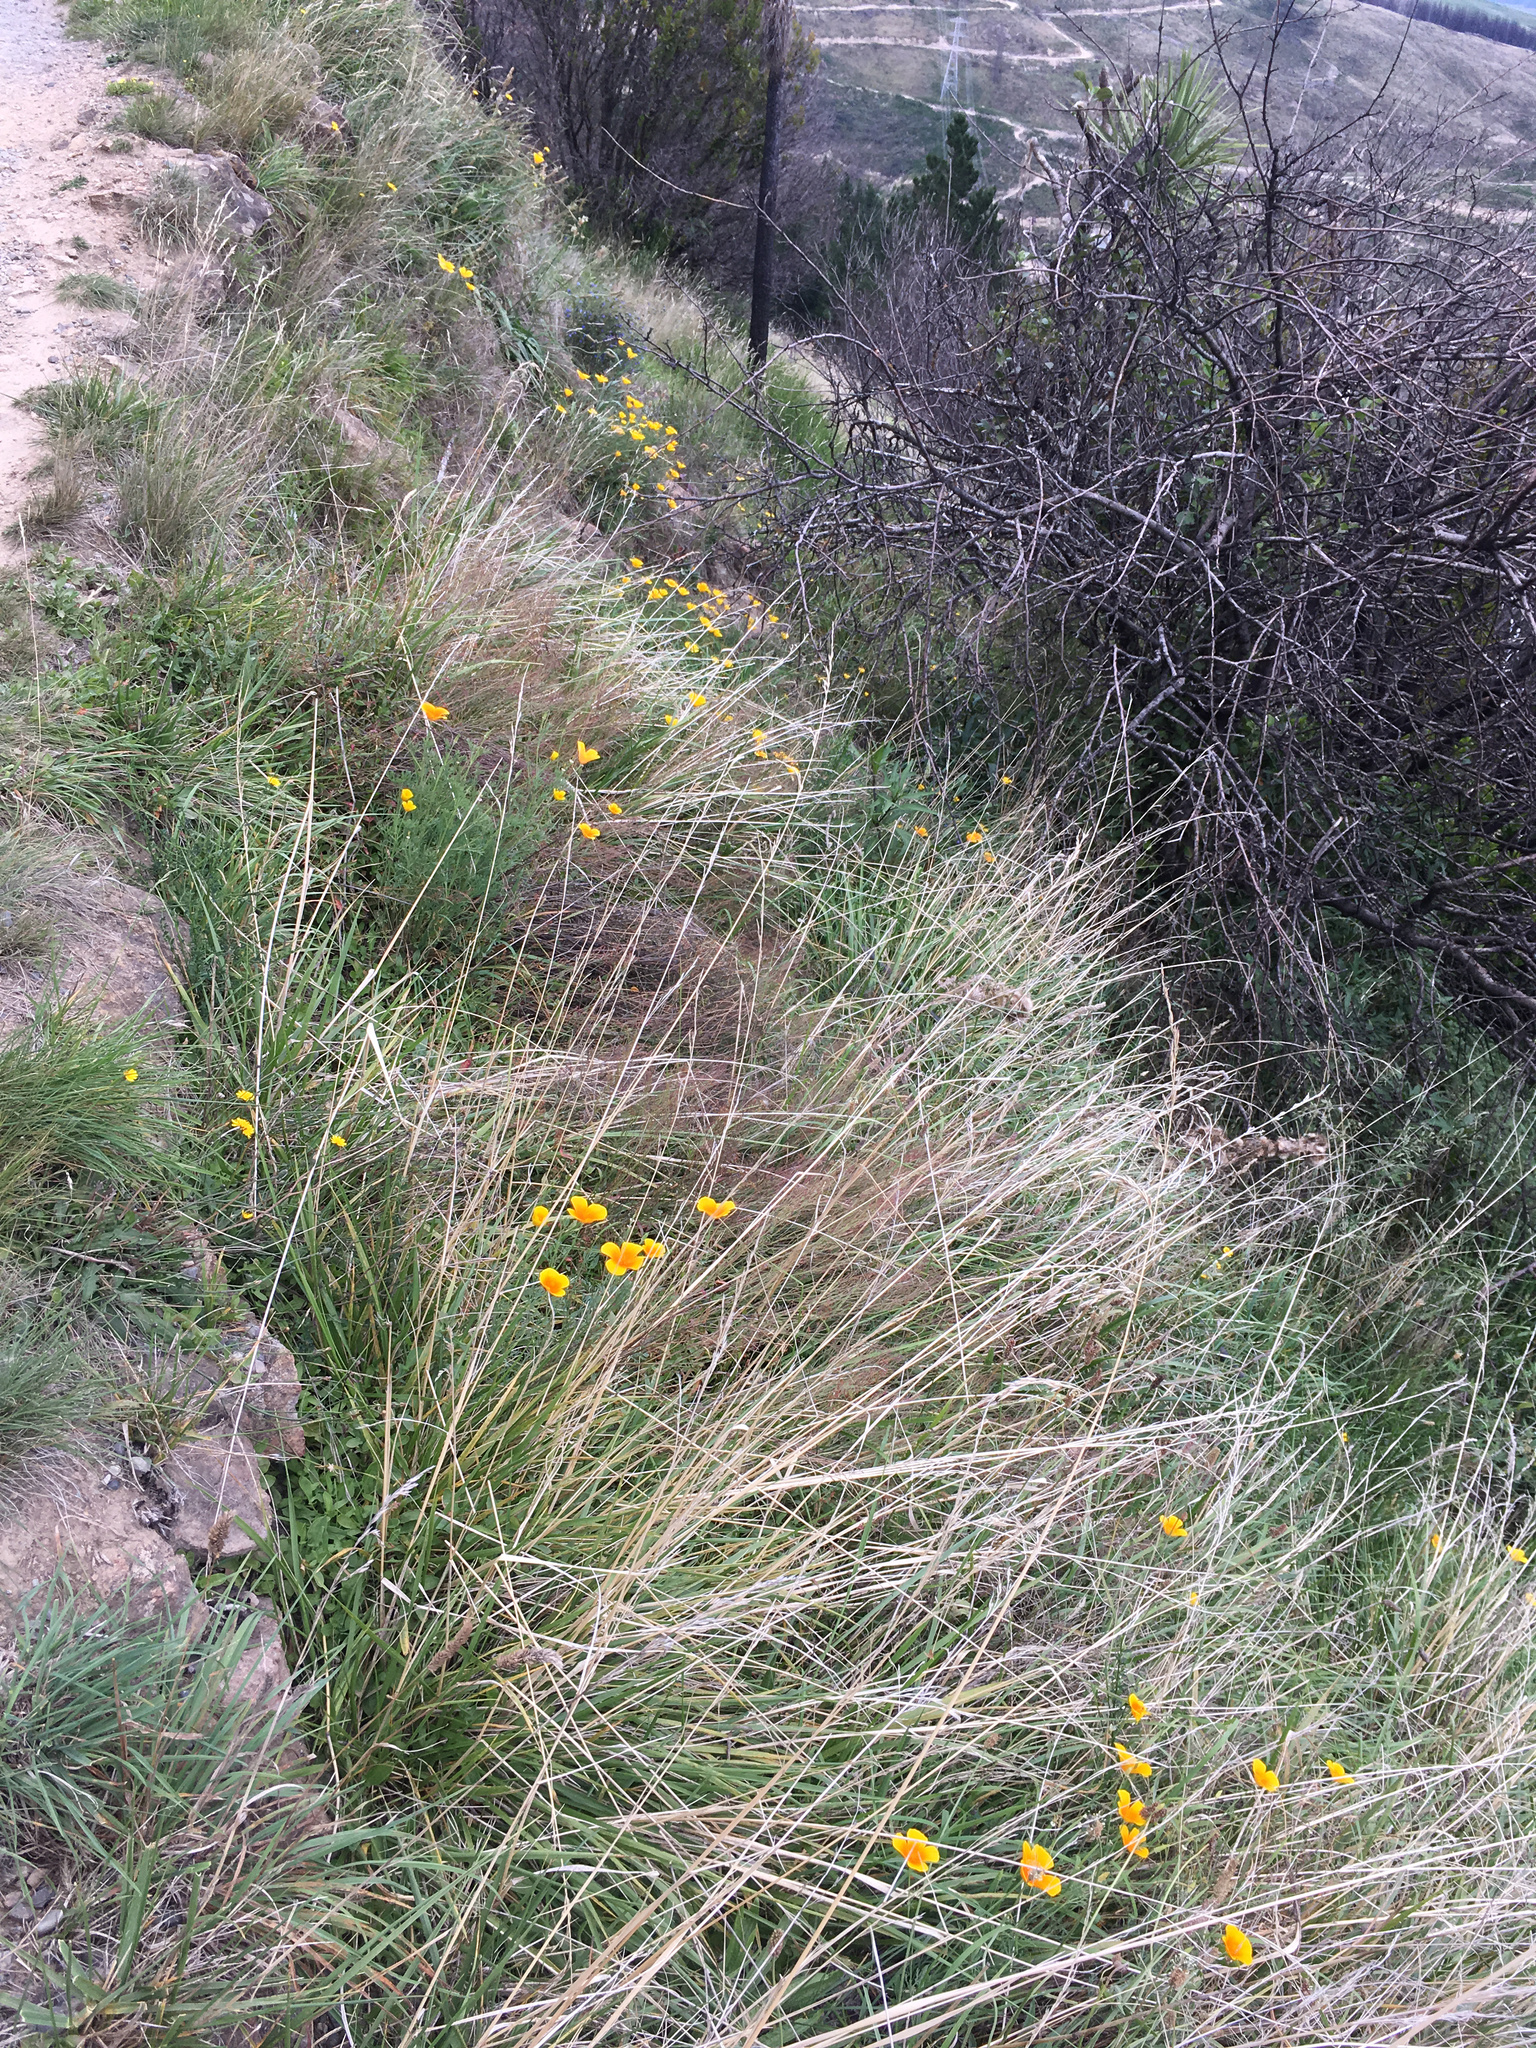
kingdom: Plantae
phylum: Tracheophyta
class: Magnoliopsida
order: Ranunculales
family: Papaveraceae
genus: Eschscholzia
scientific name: Eschscholzia californica
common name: California poppy
